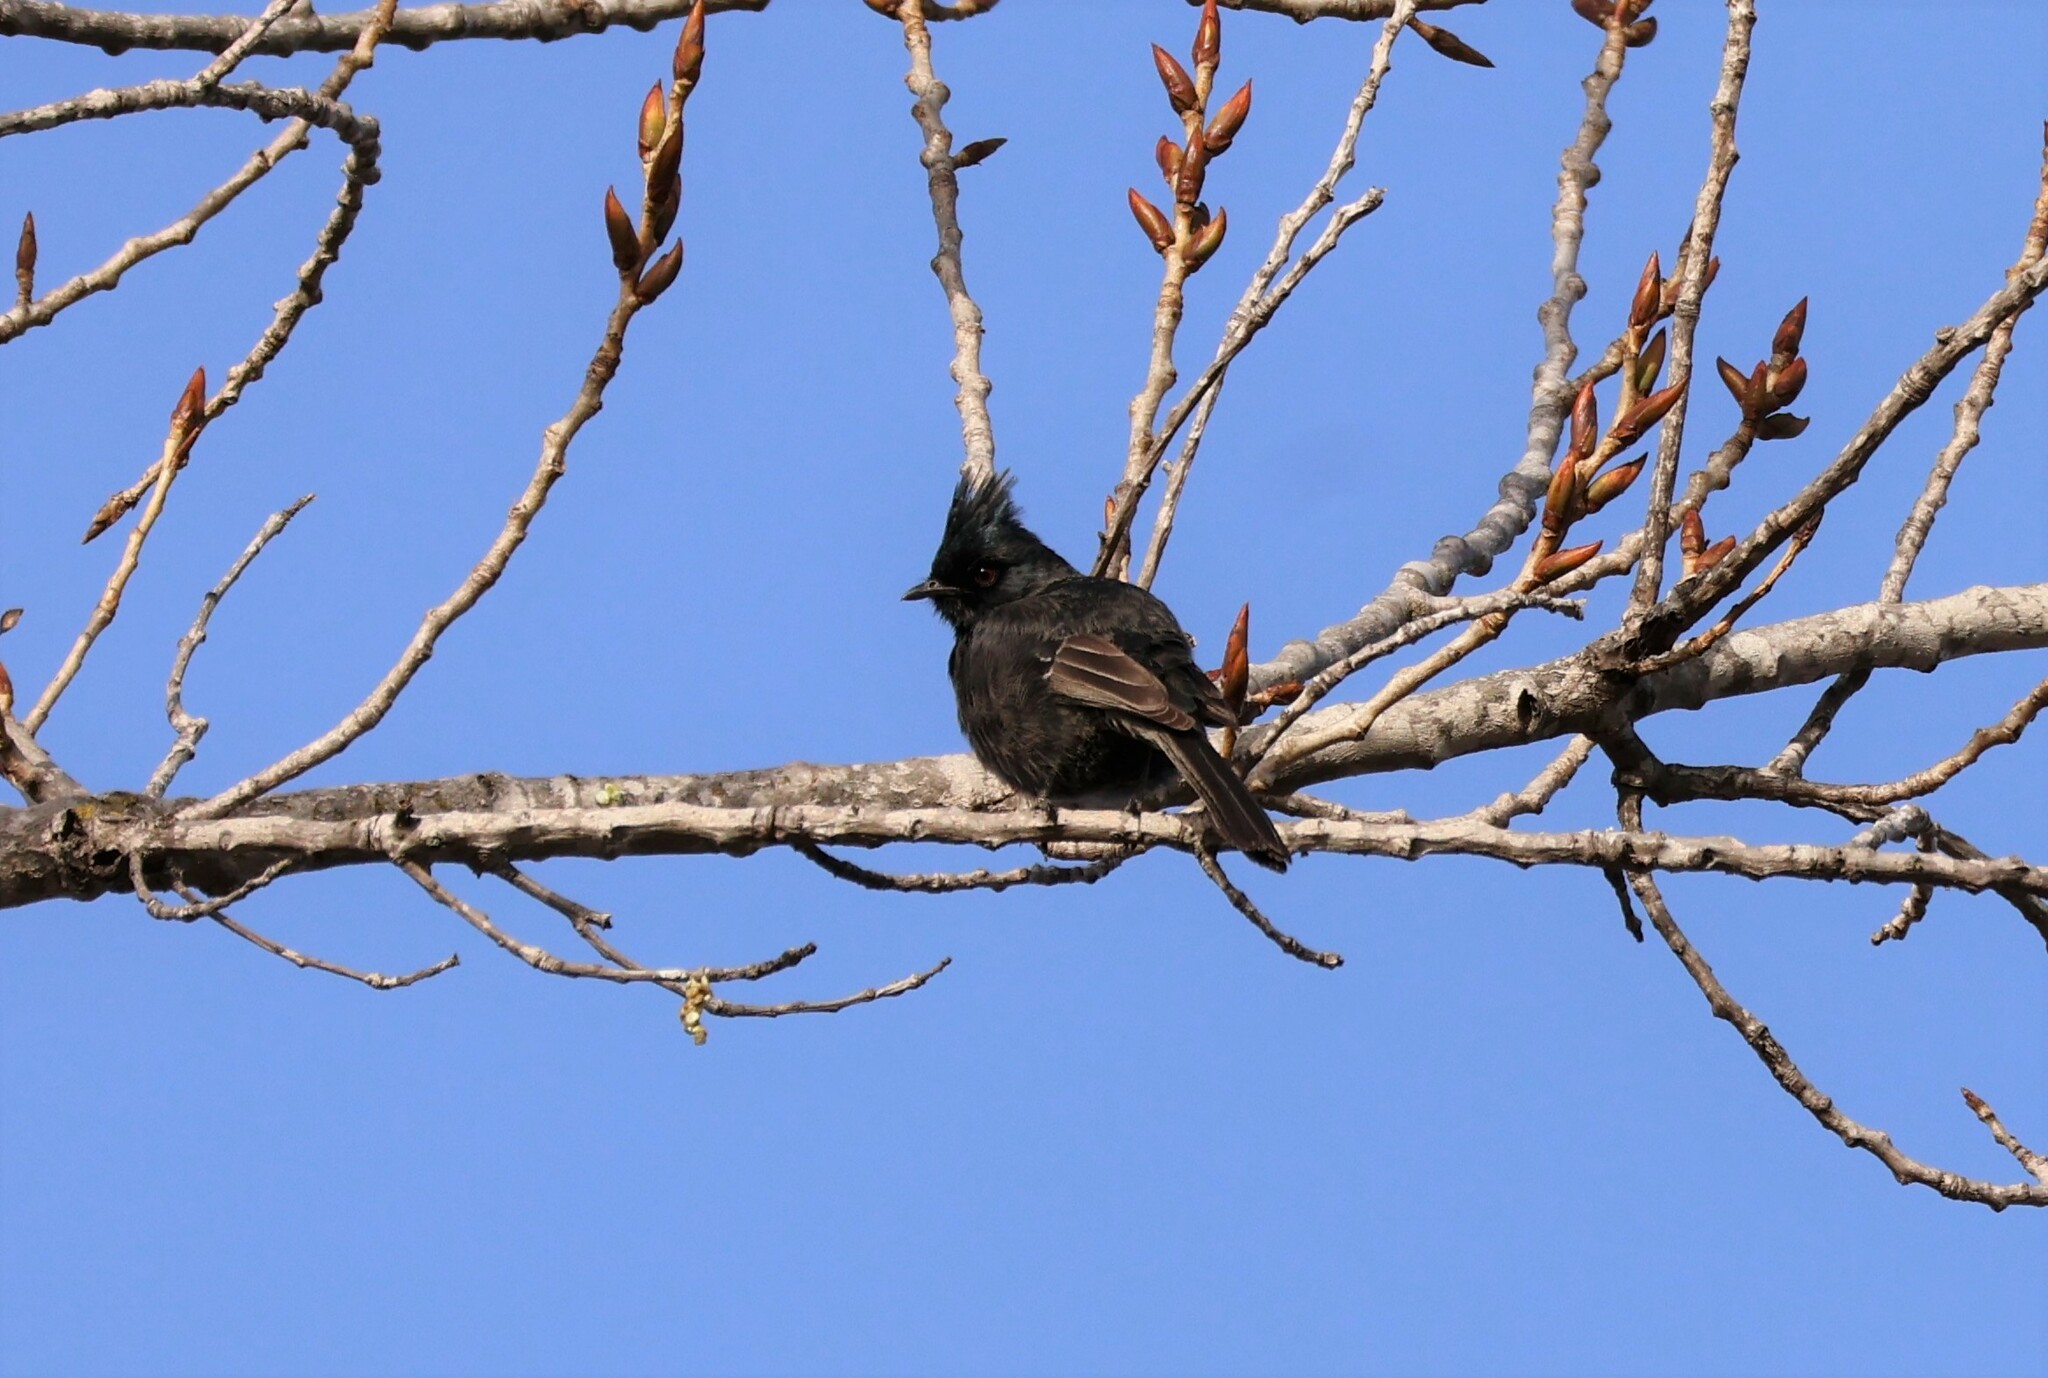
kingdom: Animalia
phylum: Chordata
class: Aves
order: Passeriformes
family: Ptilogonatidae
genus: Phainopepla
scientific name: Phainopepla nitens
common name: Phainopepla
